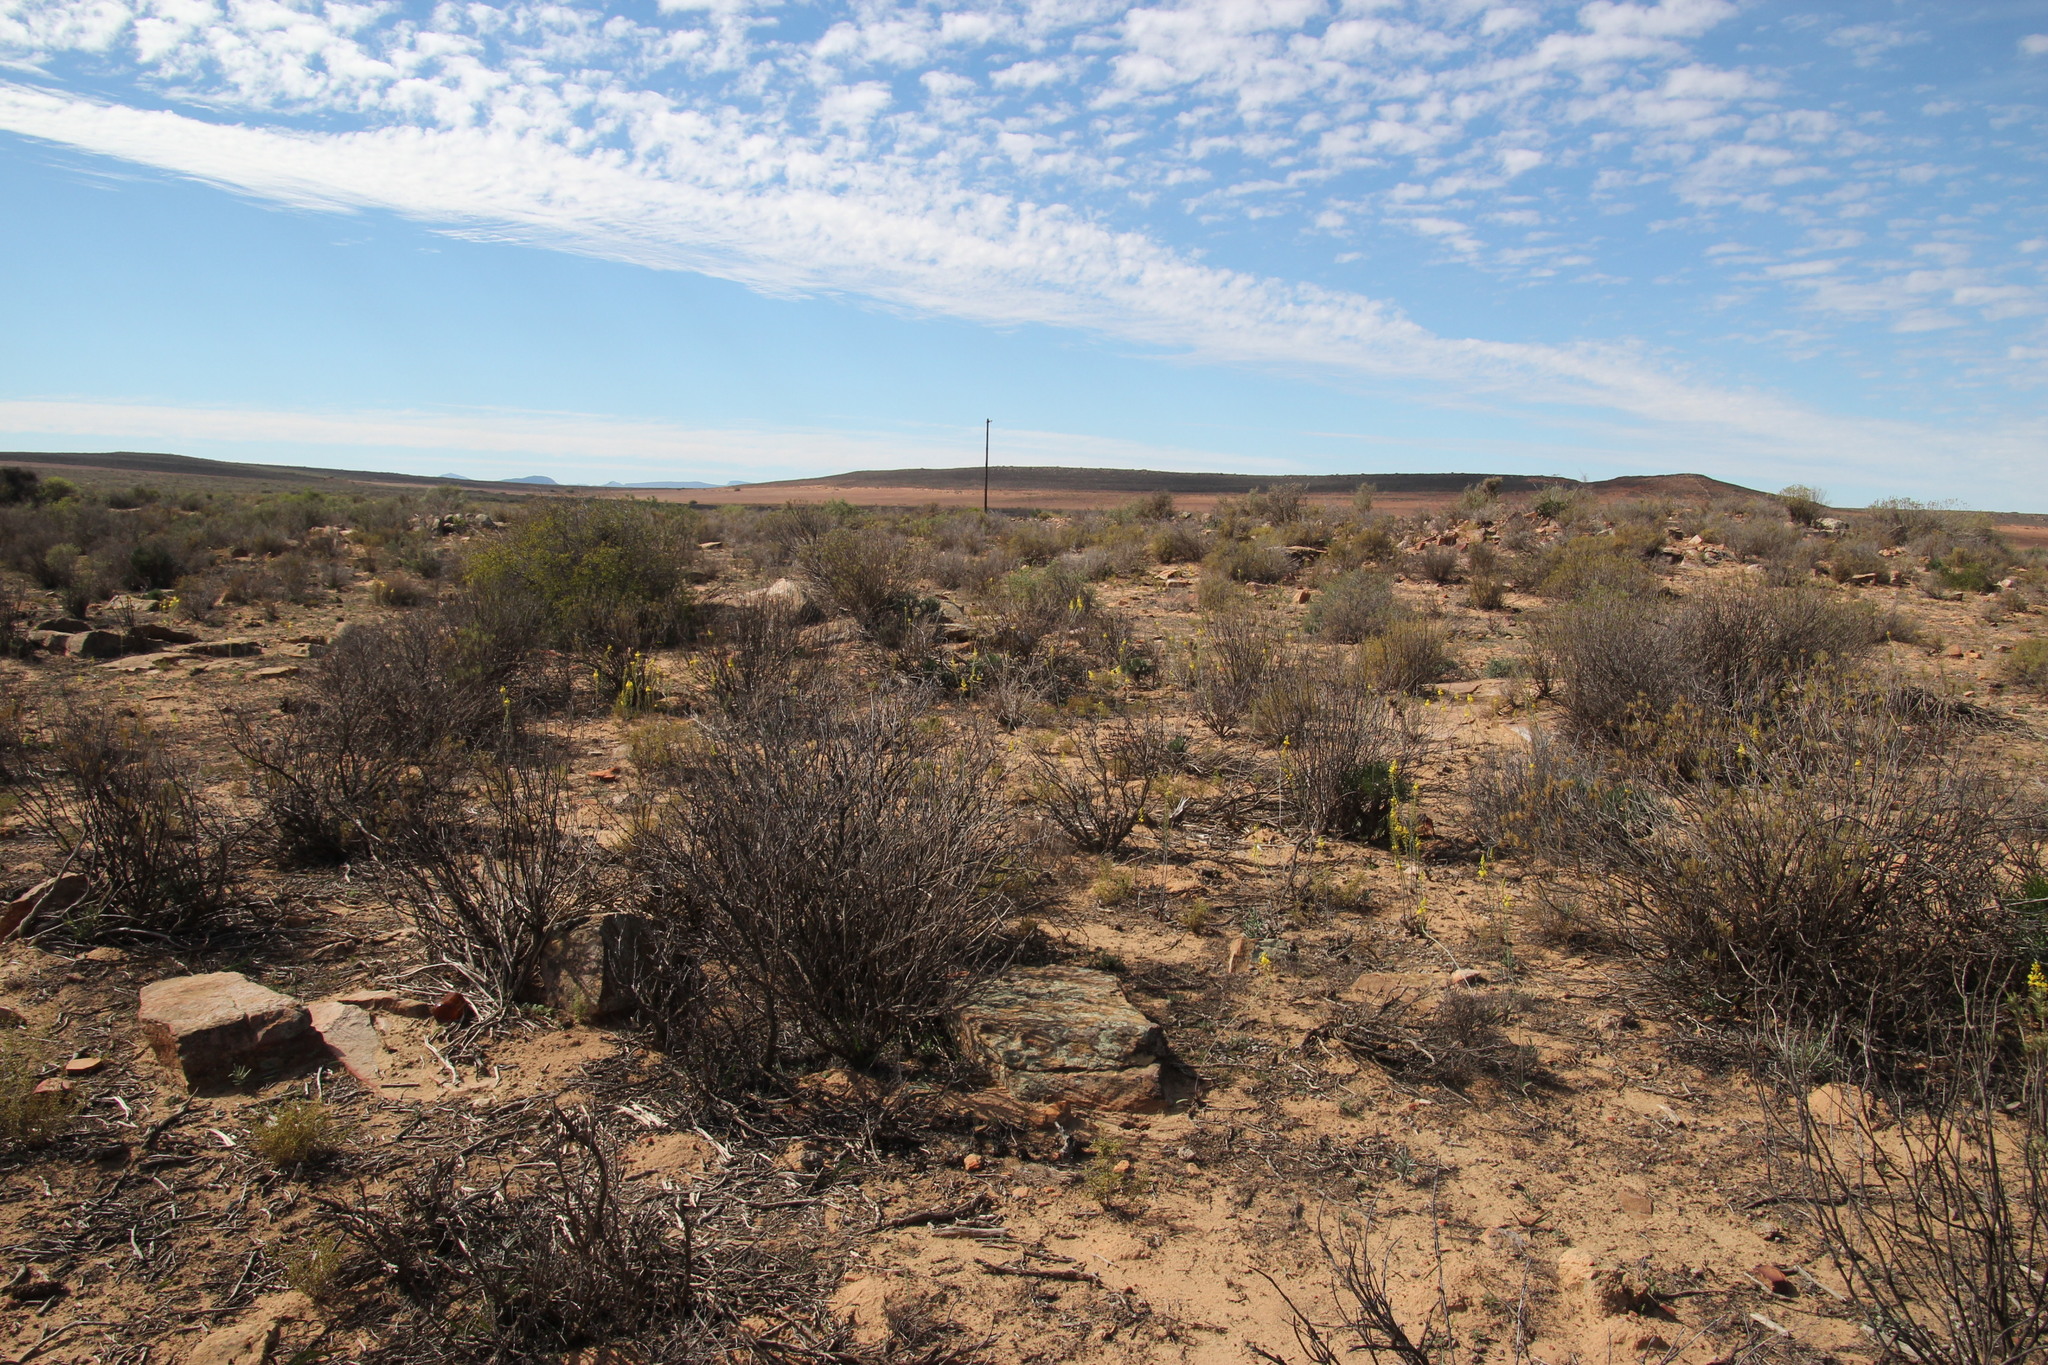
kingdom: Plantae
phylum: Tracheophyta
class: Liliopsida
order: Asparagales
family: Asphodelaceae
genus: Bulbine
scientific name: Bulbine alooides
